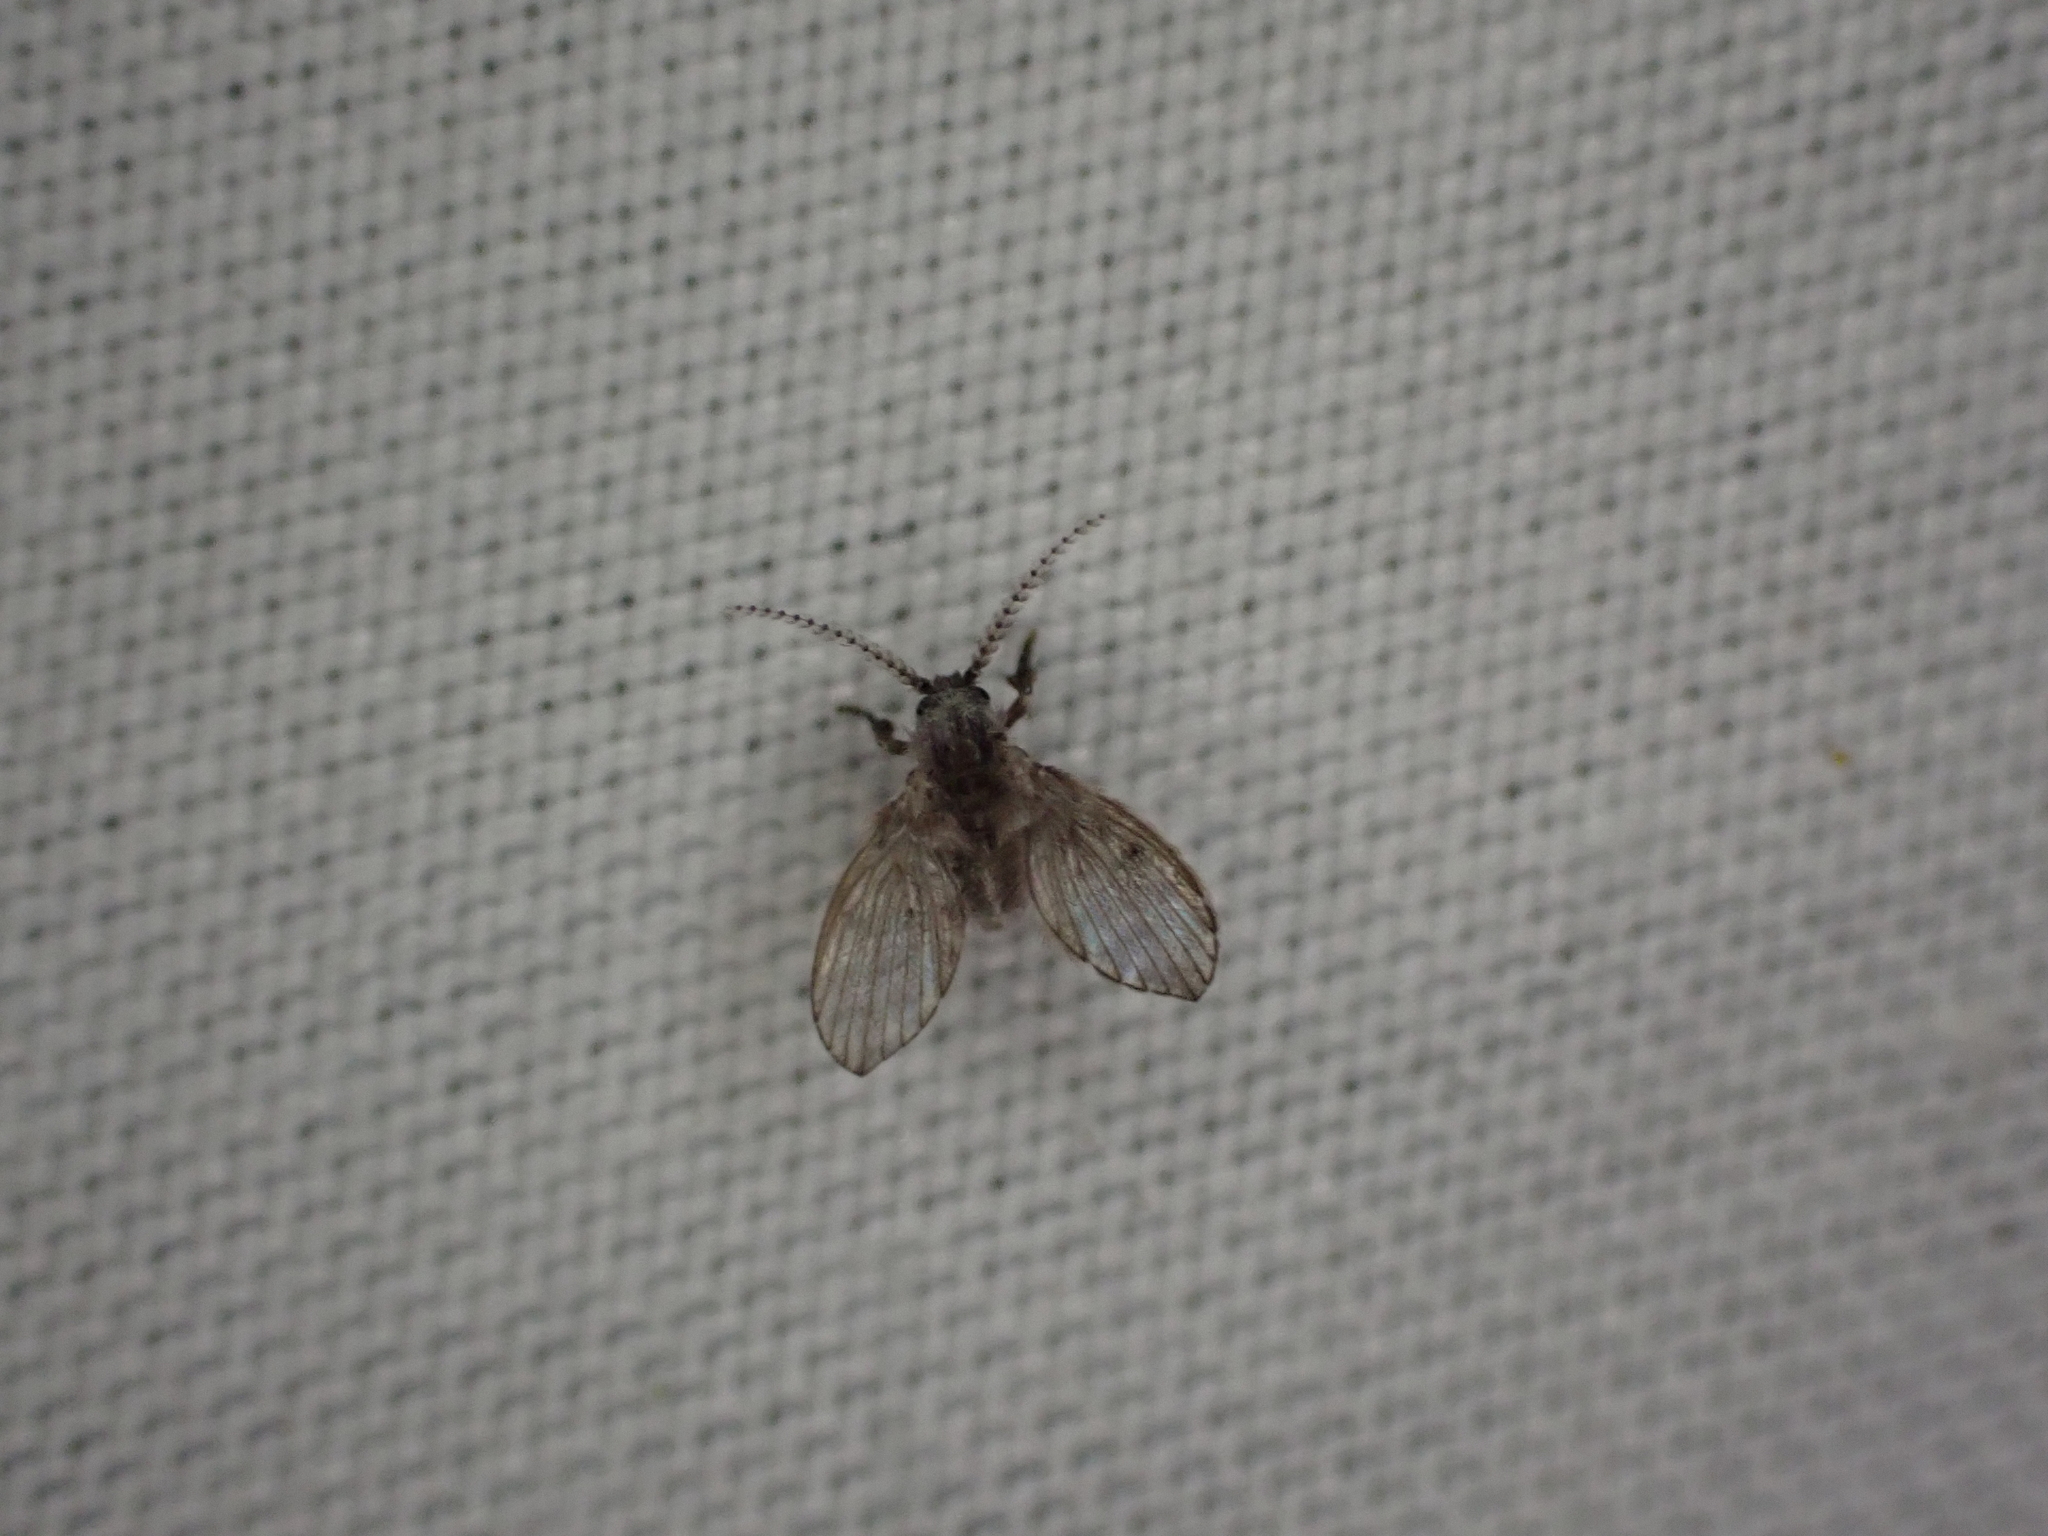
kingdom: Animalia
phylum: Arthropoda
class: Insecta
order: Diptera
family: Psychodidae
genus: Clogmia
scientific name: Clogmia albipunctatus
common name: White-spotted moth fly
